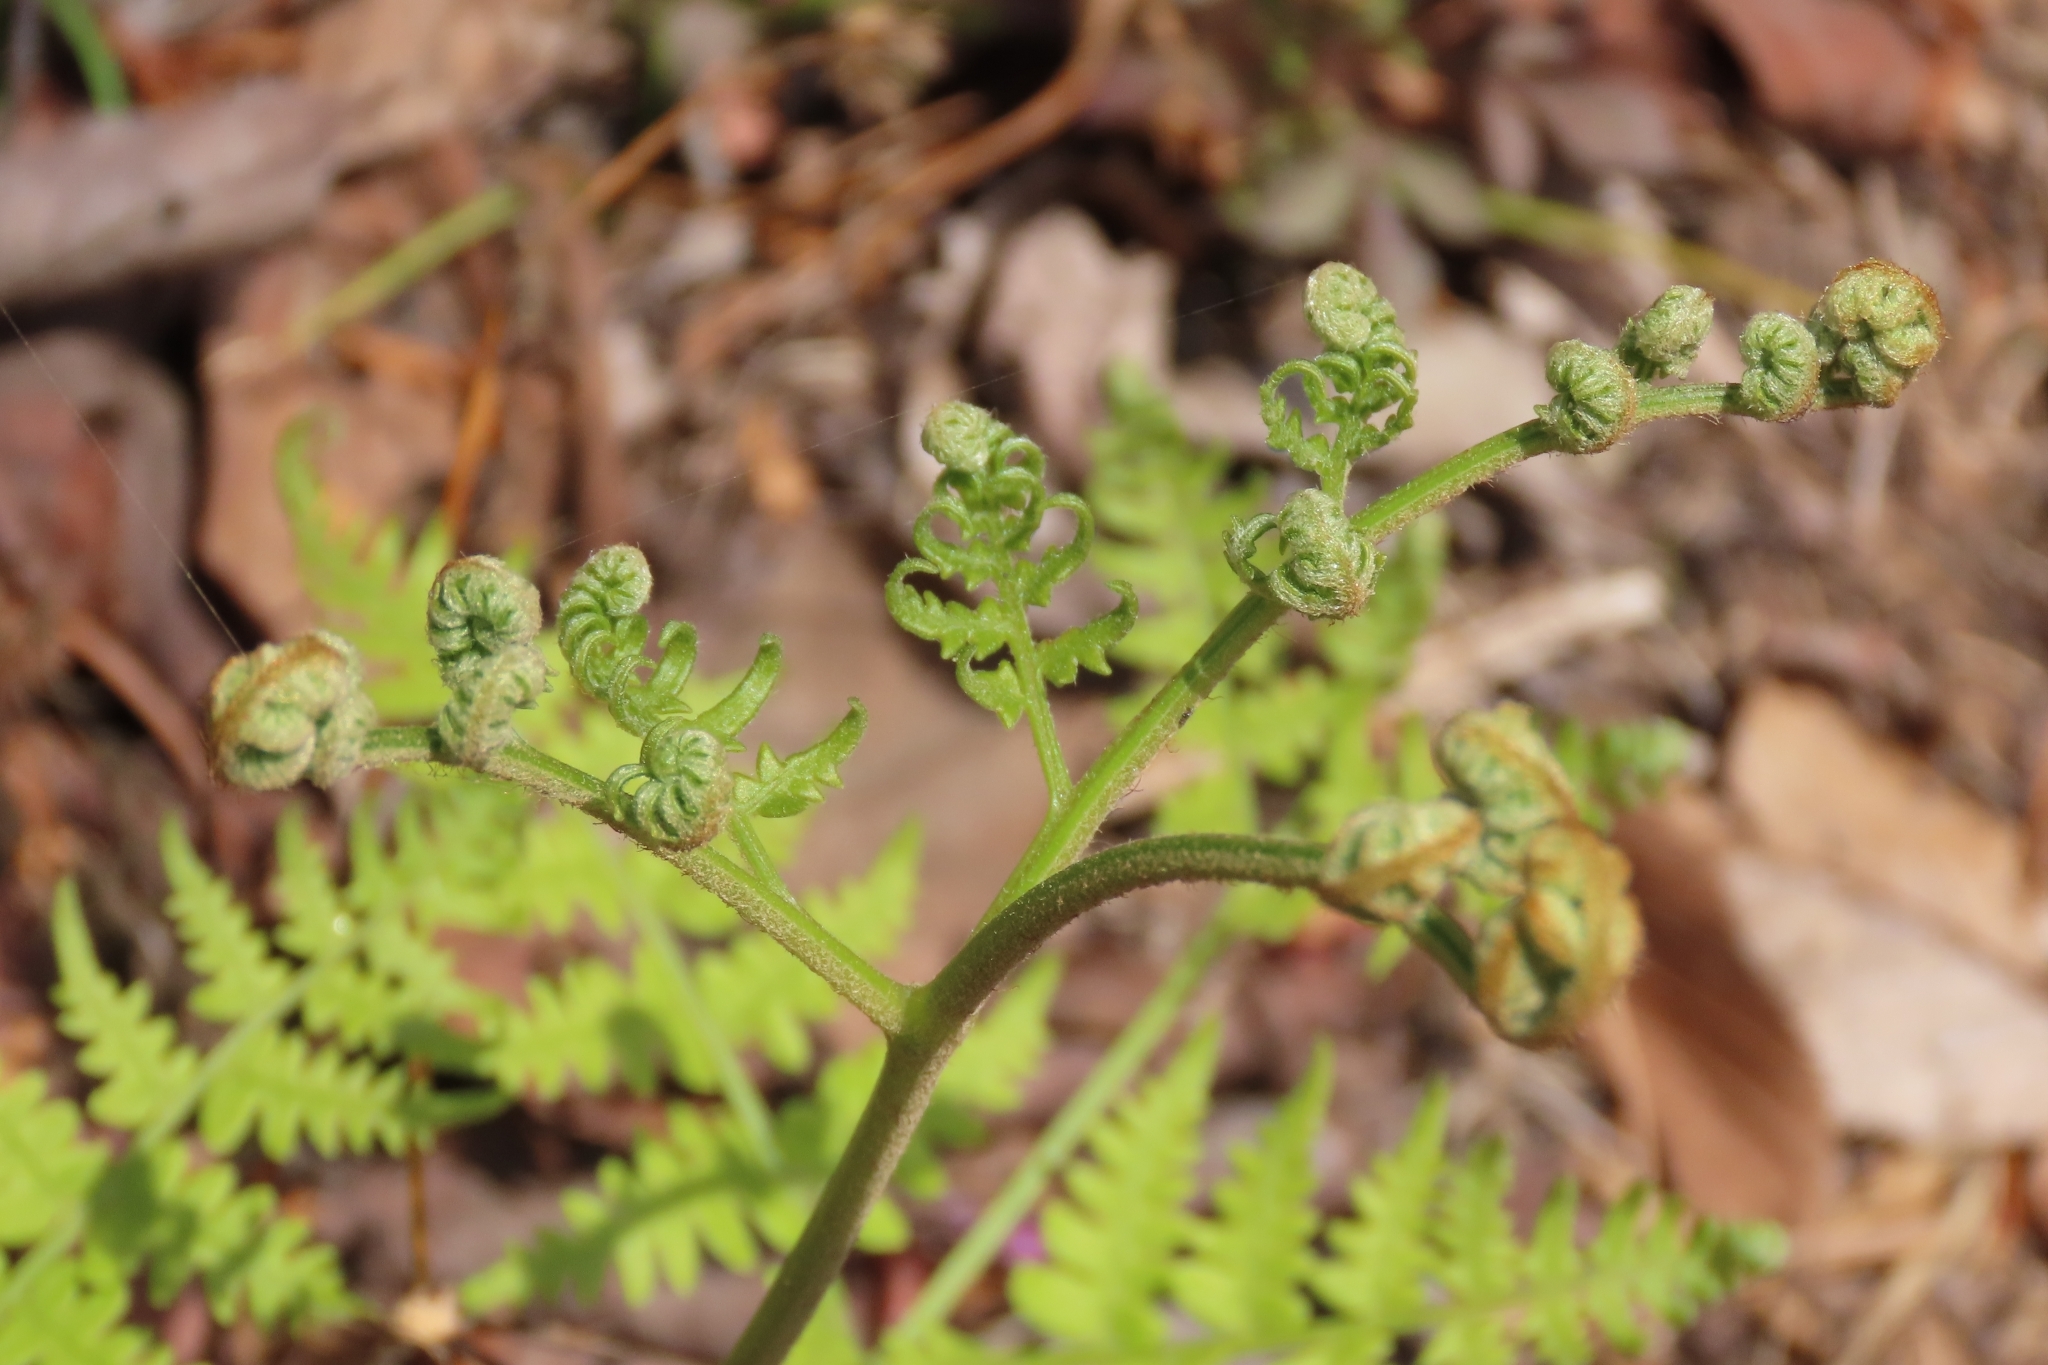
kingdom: Plantae
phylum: Tracheophyta
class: Polypodiopsida
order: Polypodiales
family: Dennstaedtiaceae
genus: Pteridium
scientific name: Pteridium aquilinum
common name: Bracken
